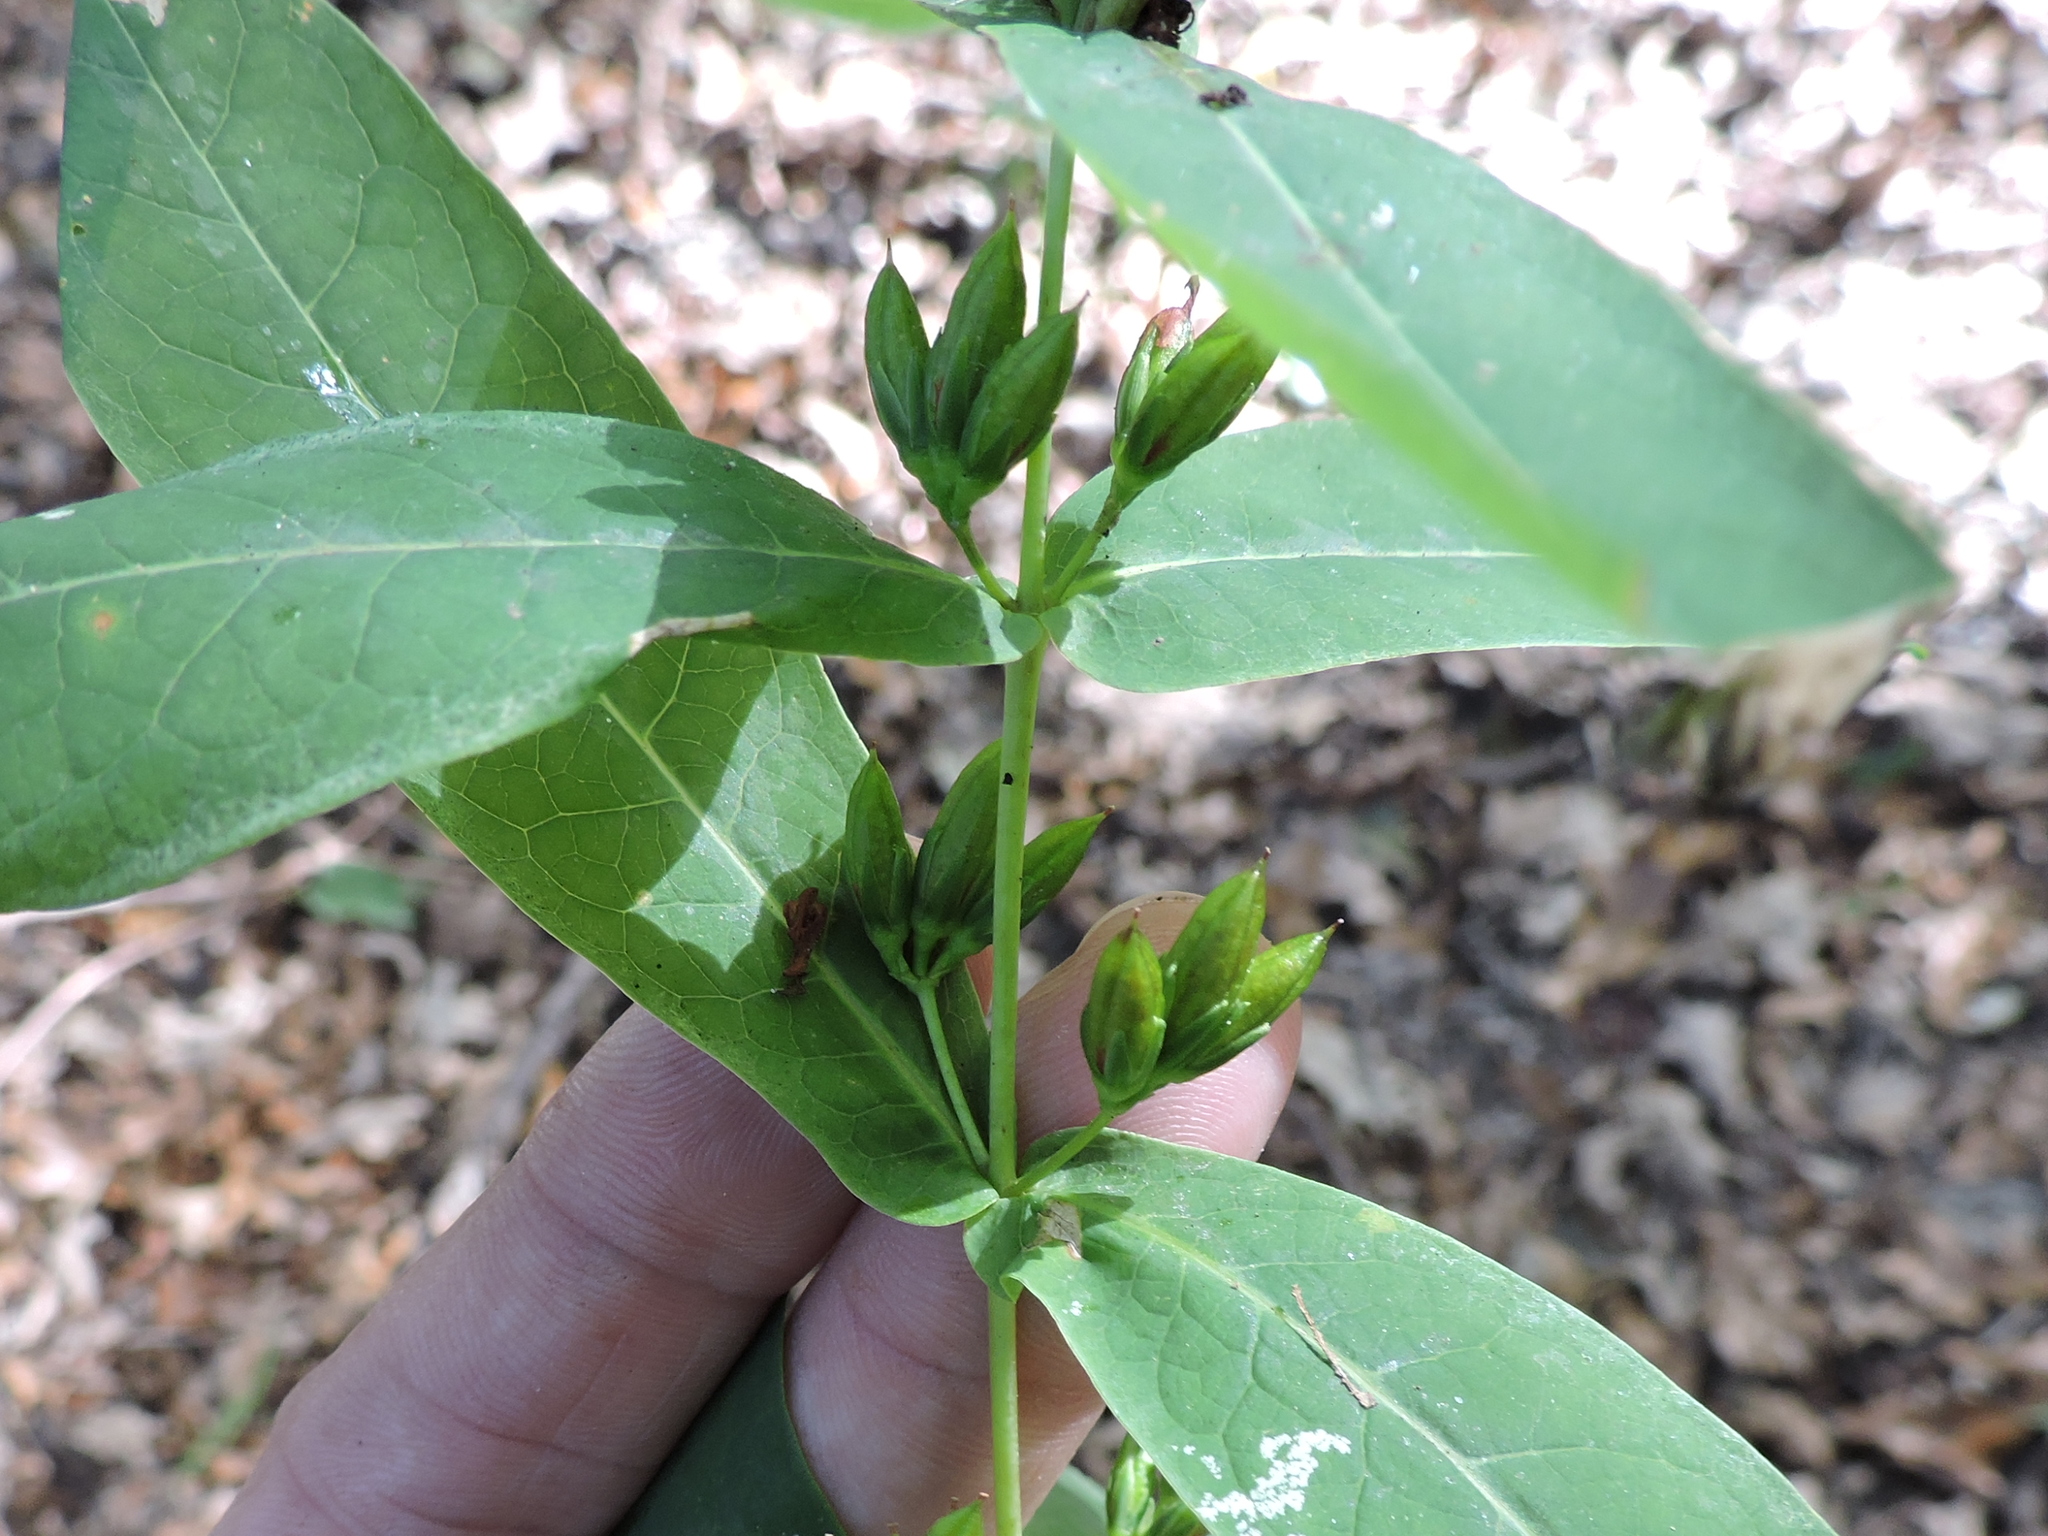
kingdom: Plantae
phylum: Tracheophyta
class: Magnoliopsida
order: Malpighiales
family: Hypericaceae
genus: Triadenum
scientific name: Triadenum tubulosum
